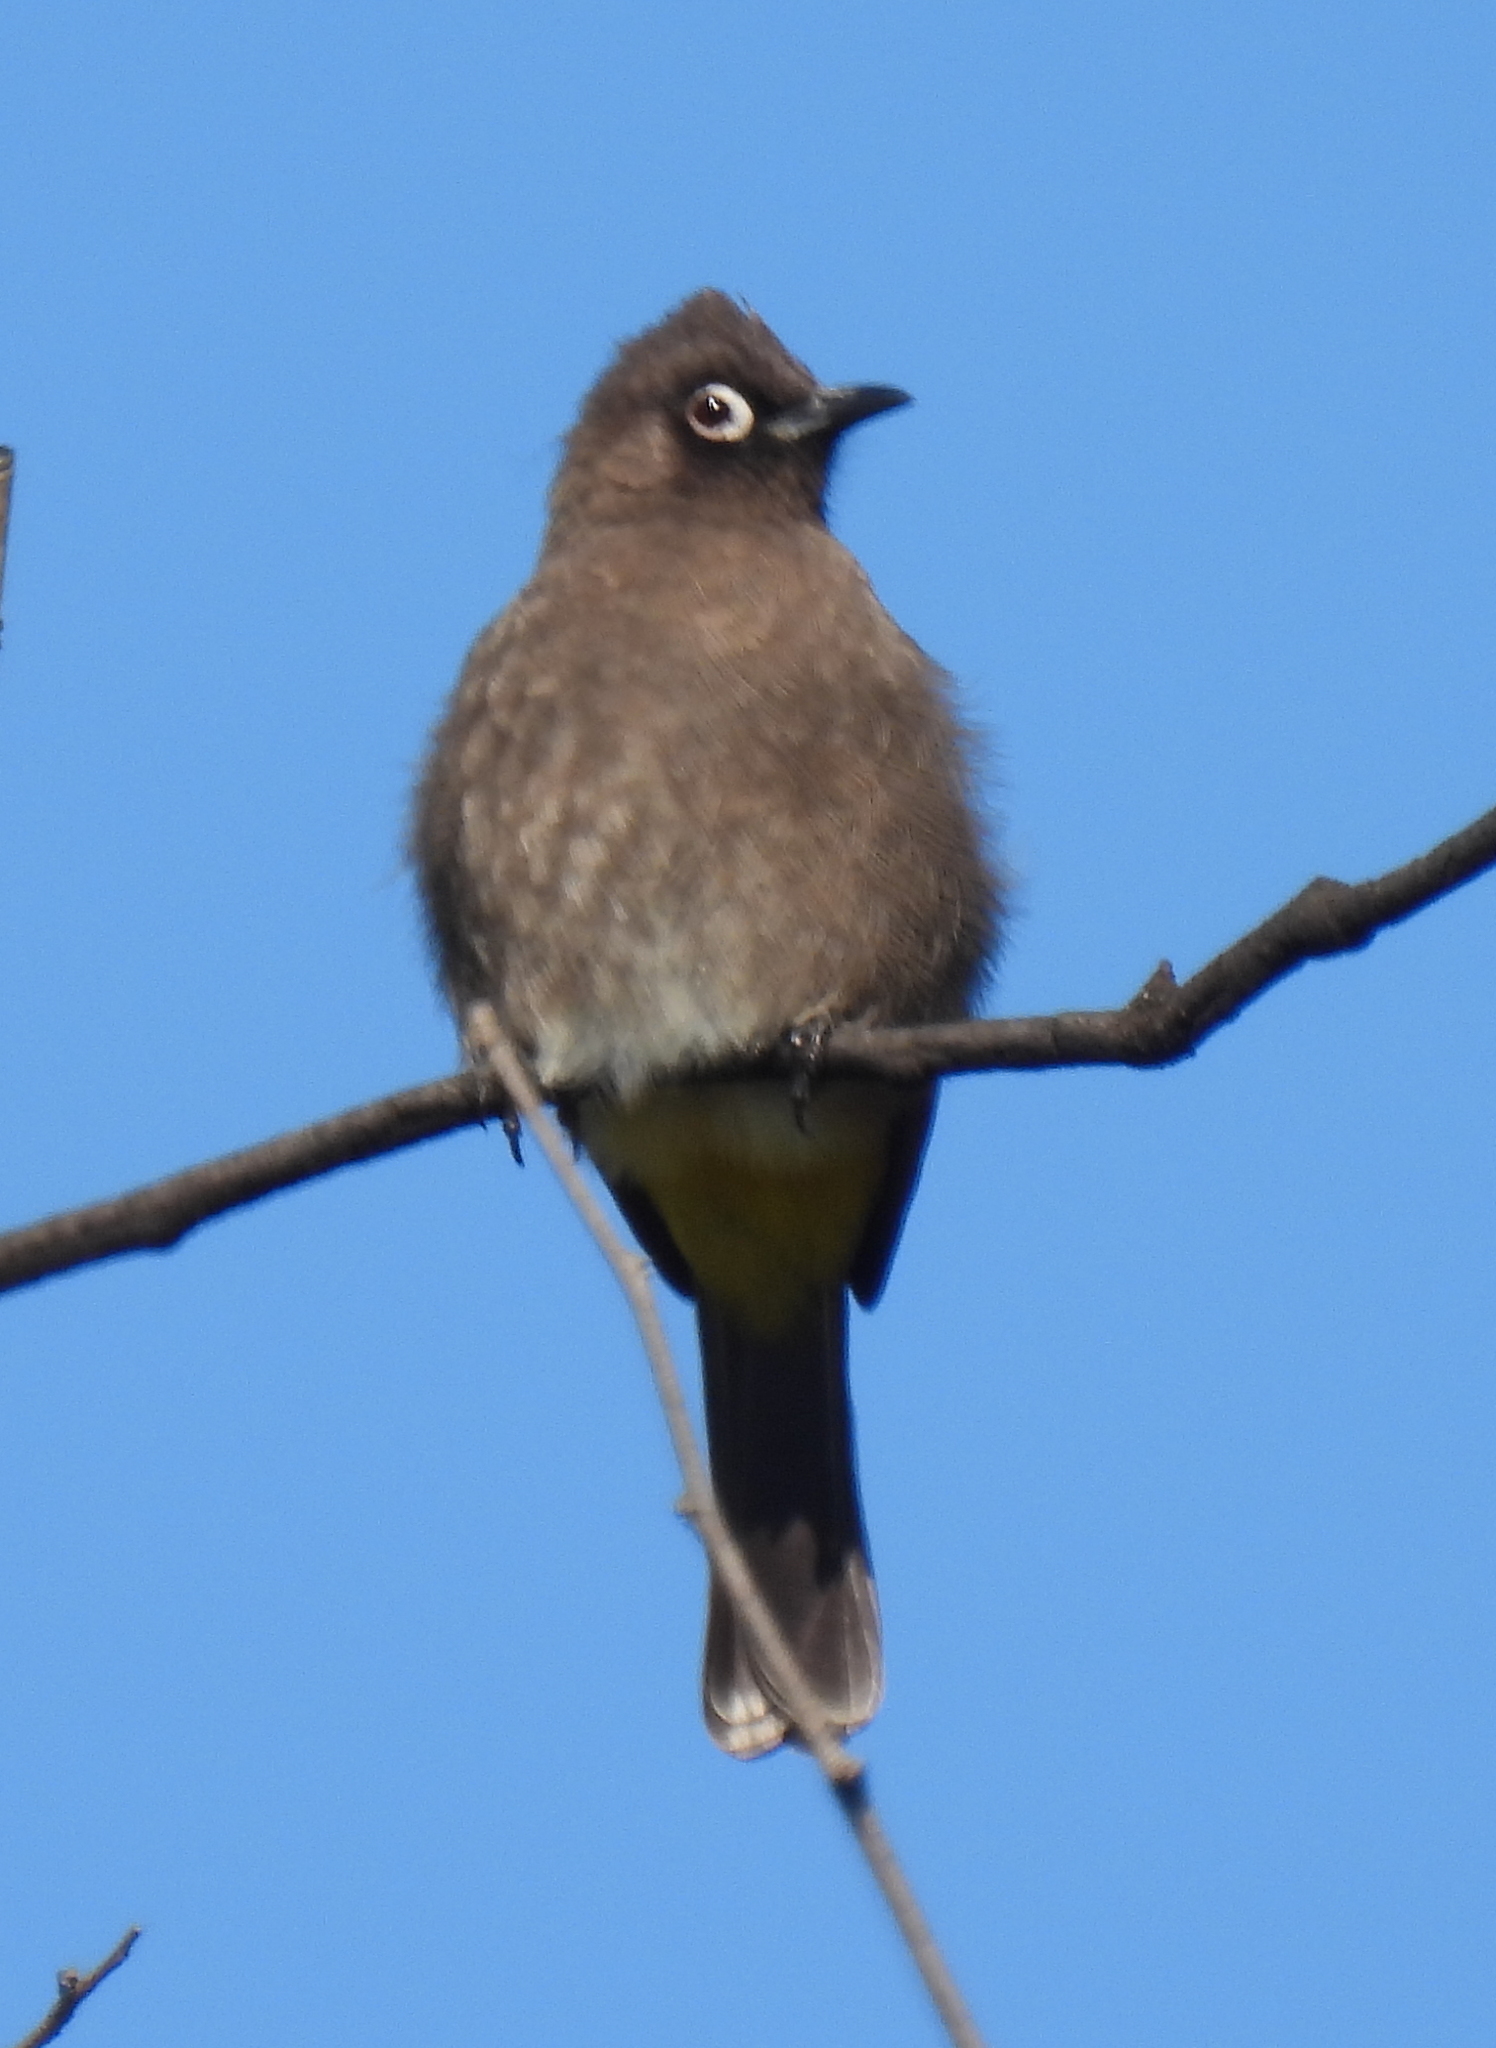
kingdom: Animalia
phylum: Chordata
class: Aves
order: Passeriformes
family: Pycnonotidae
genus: Pycnonotus
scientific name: Pycnonotus capensis
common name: Cape bulbul
